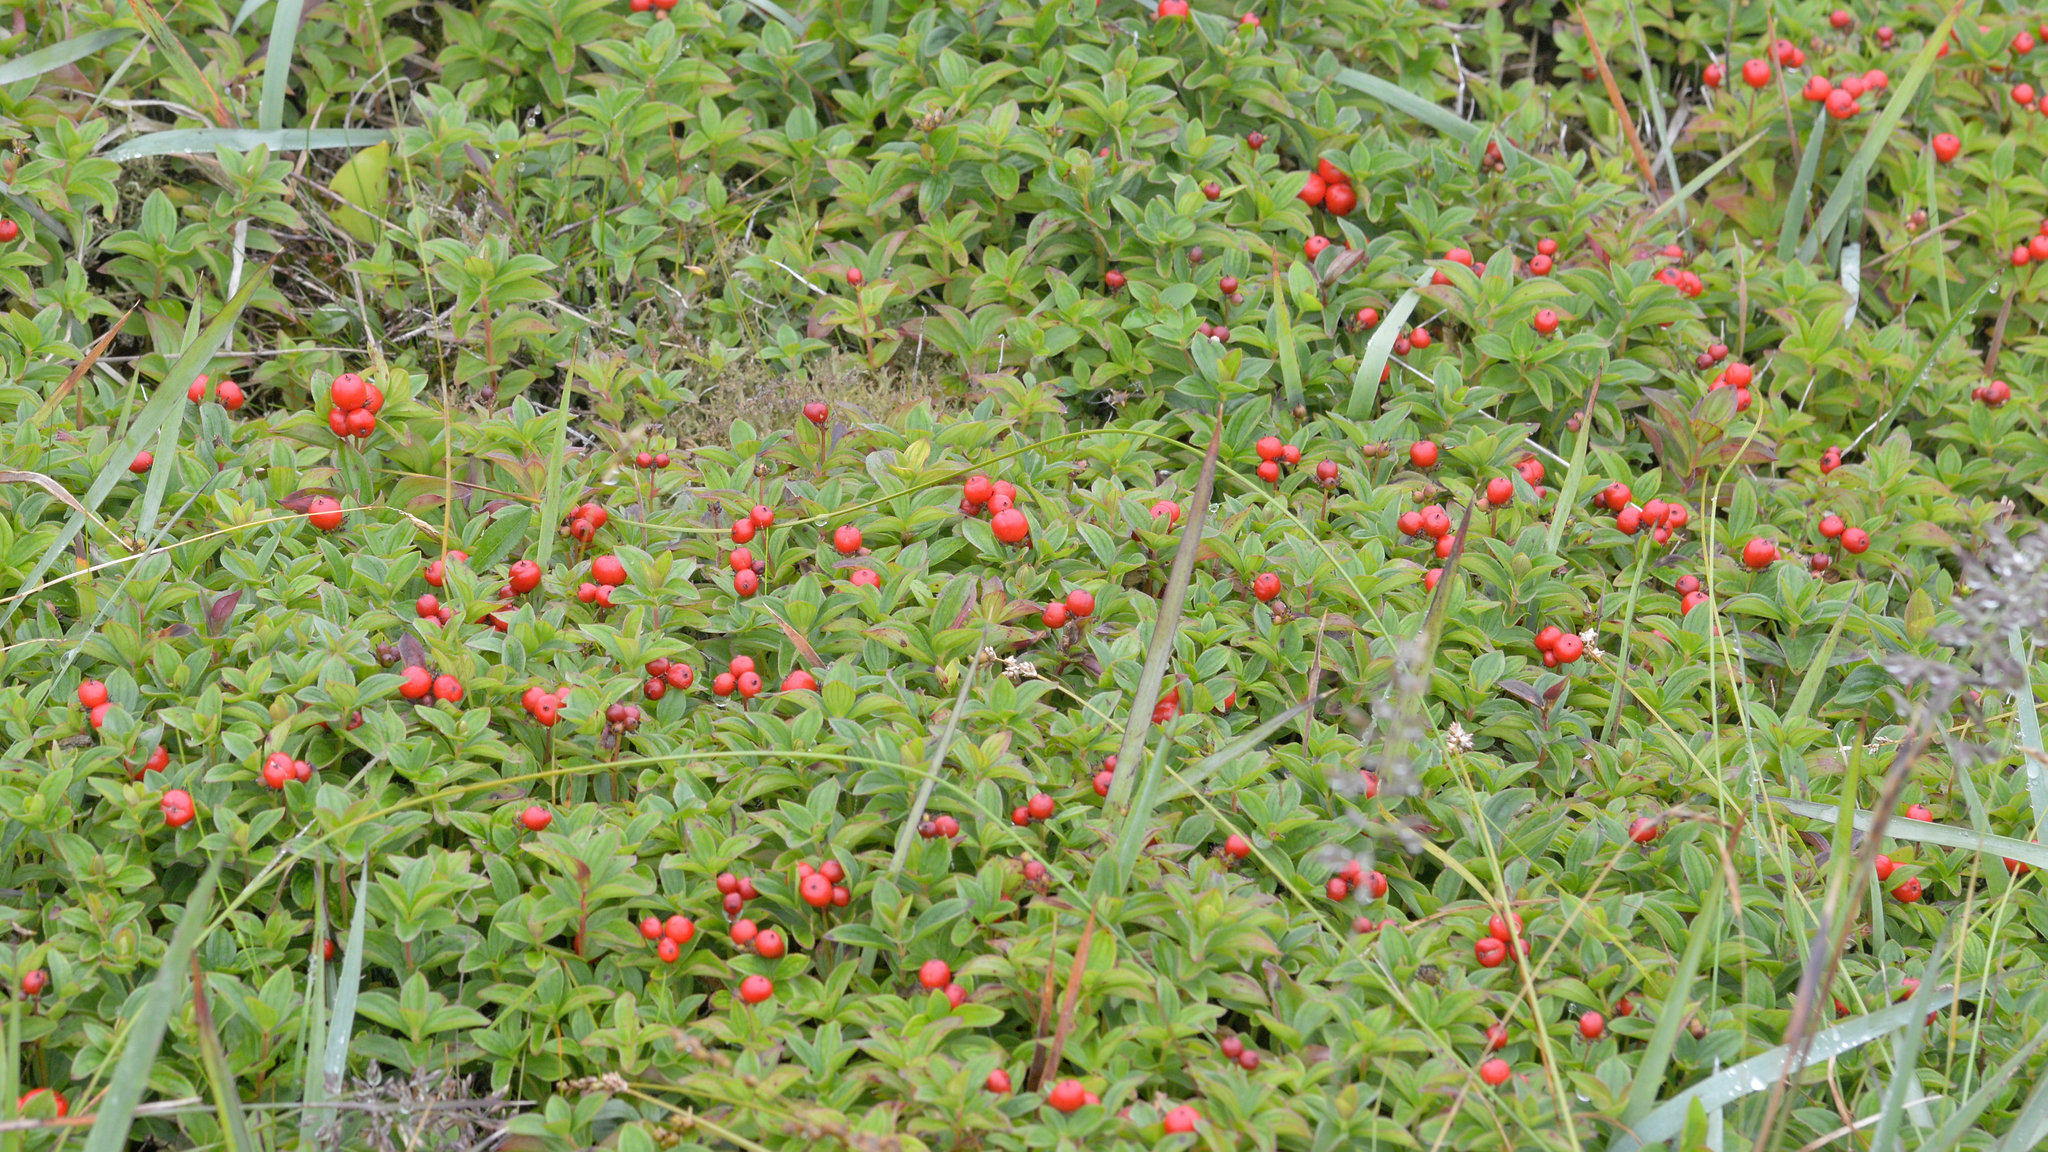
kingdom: Plantae
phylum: Tracheophyta
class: Magnoliopsida
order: Cornales
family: Cornaceae
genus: Cornus
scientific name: Cornus suecica
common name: Dwarf cornel
